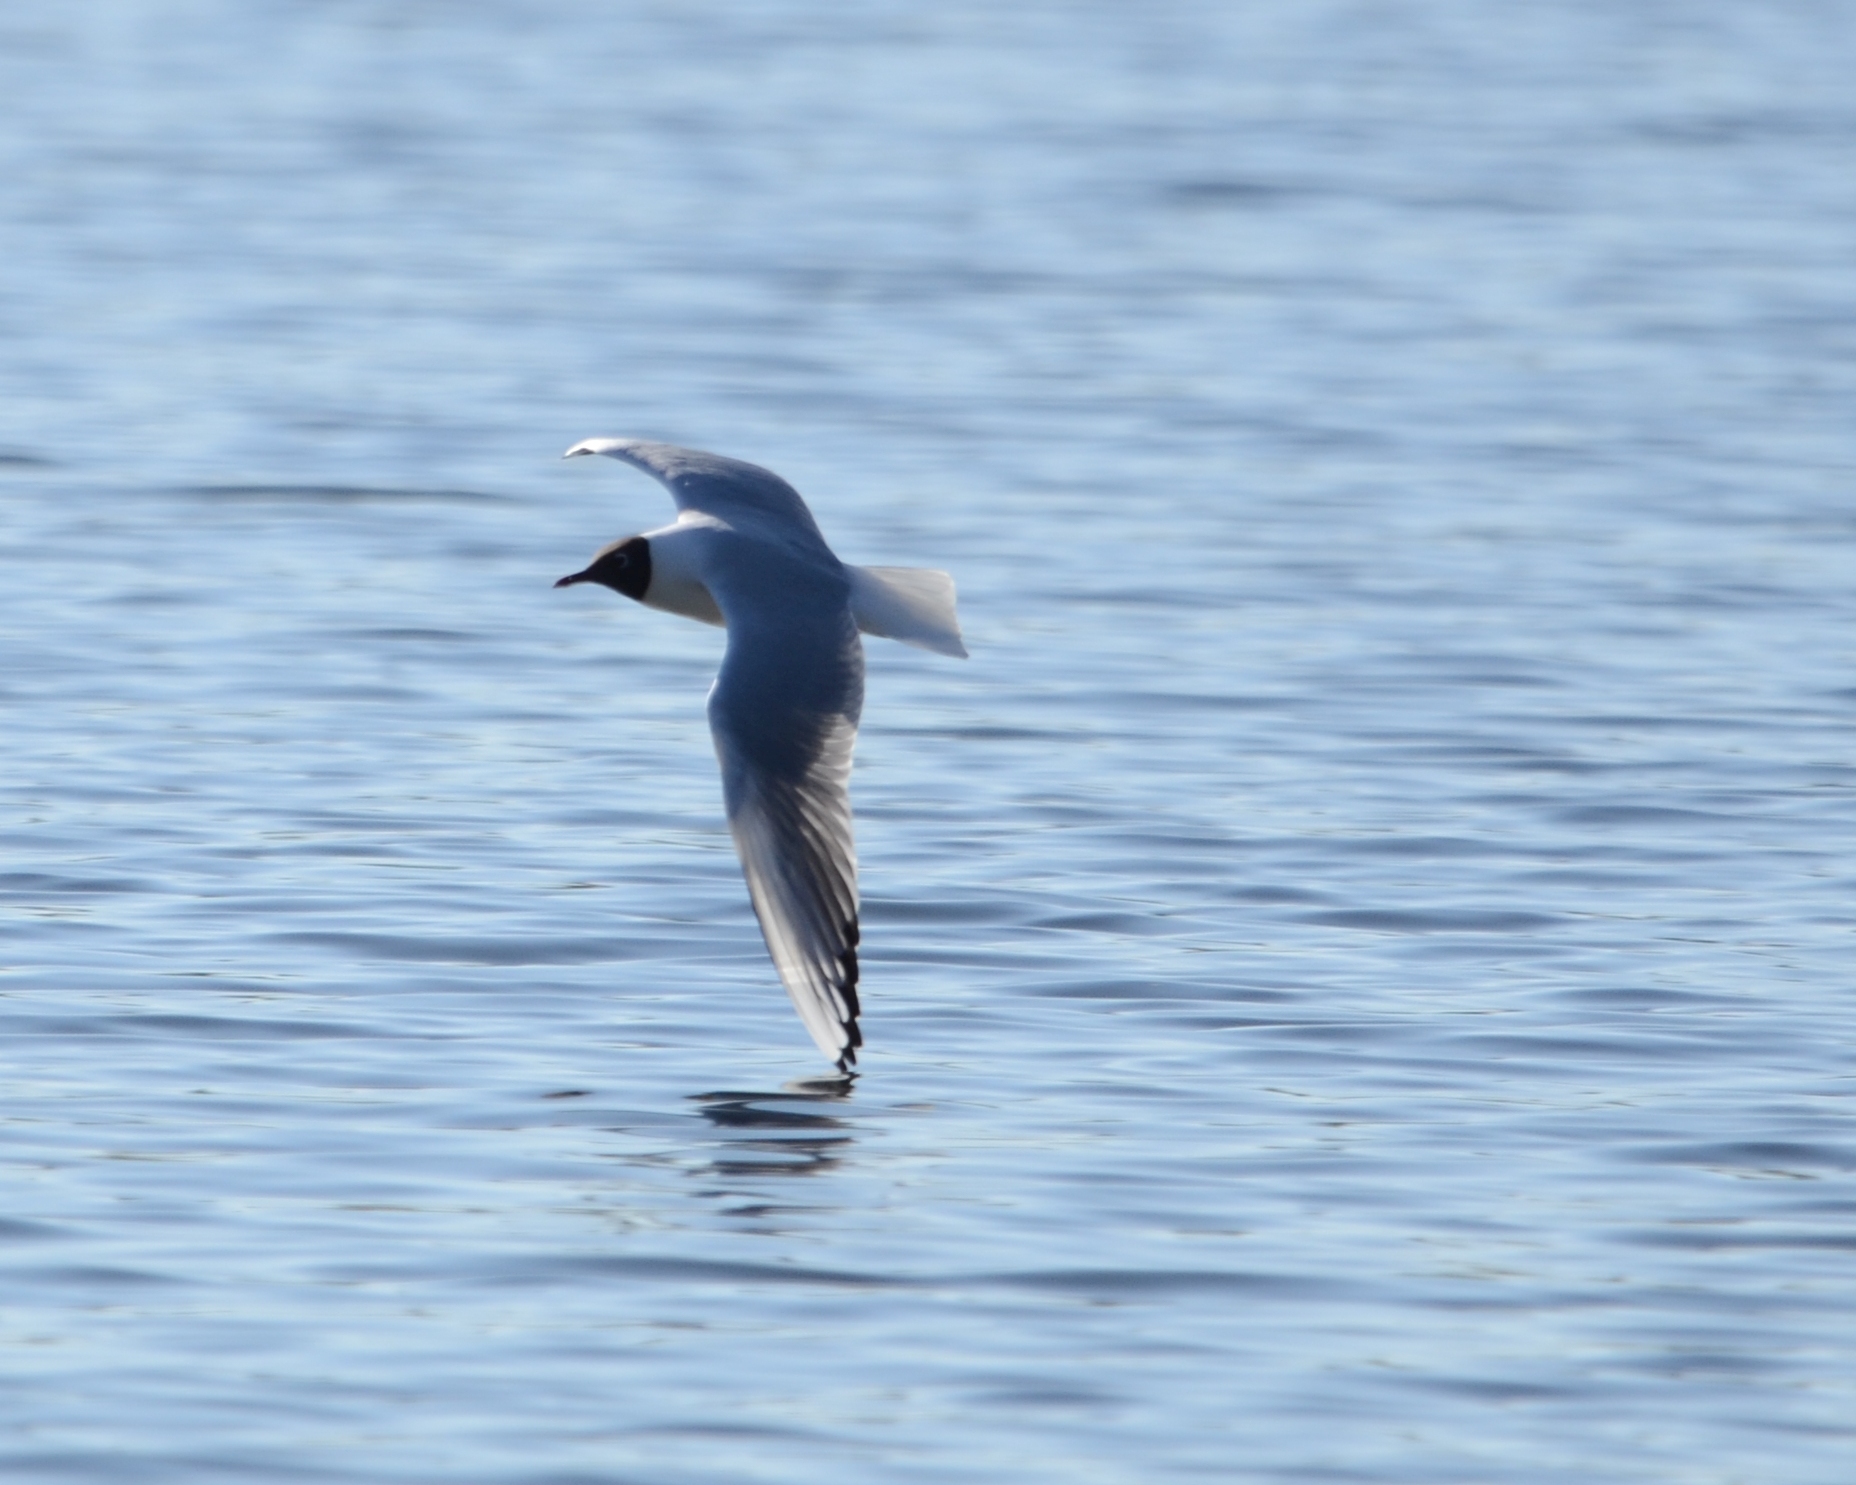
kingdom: Animalia
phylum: Chordata
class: Aves
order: Charadriiformes
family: Laridae
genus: Chroicocephalus
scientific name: Chroicocephalus ridibundus
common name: Black-headed gull
